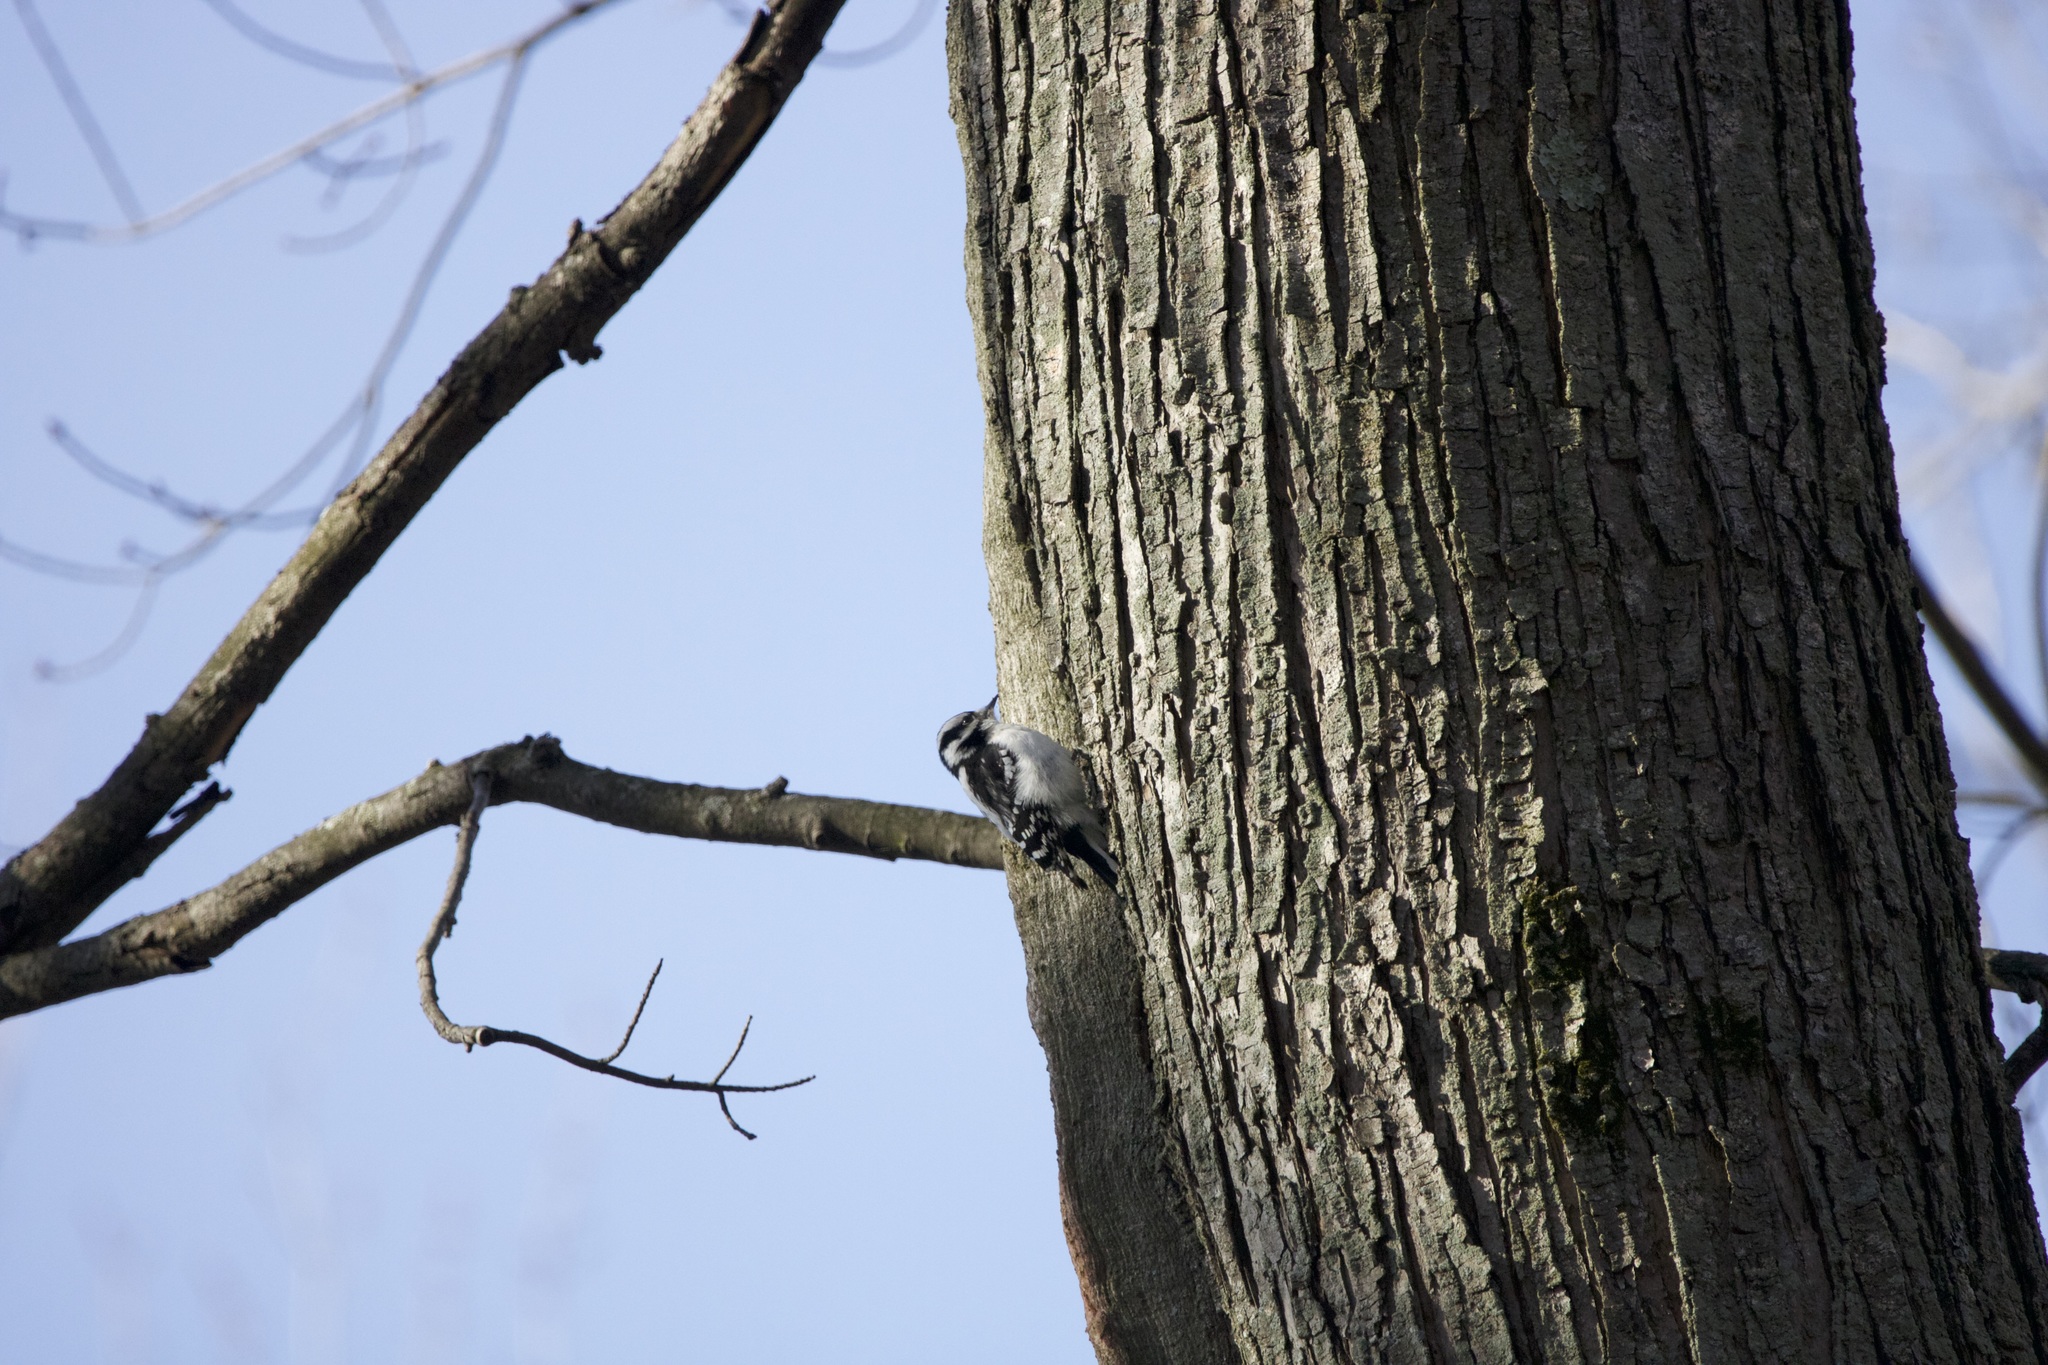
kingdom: Animalia
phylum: Chordata
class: Aves
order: Piciformes
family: Picidae
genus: Dryobates
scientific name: Dryobates pubescens
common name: Downy woodpecker
